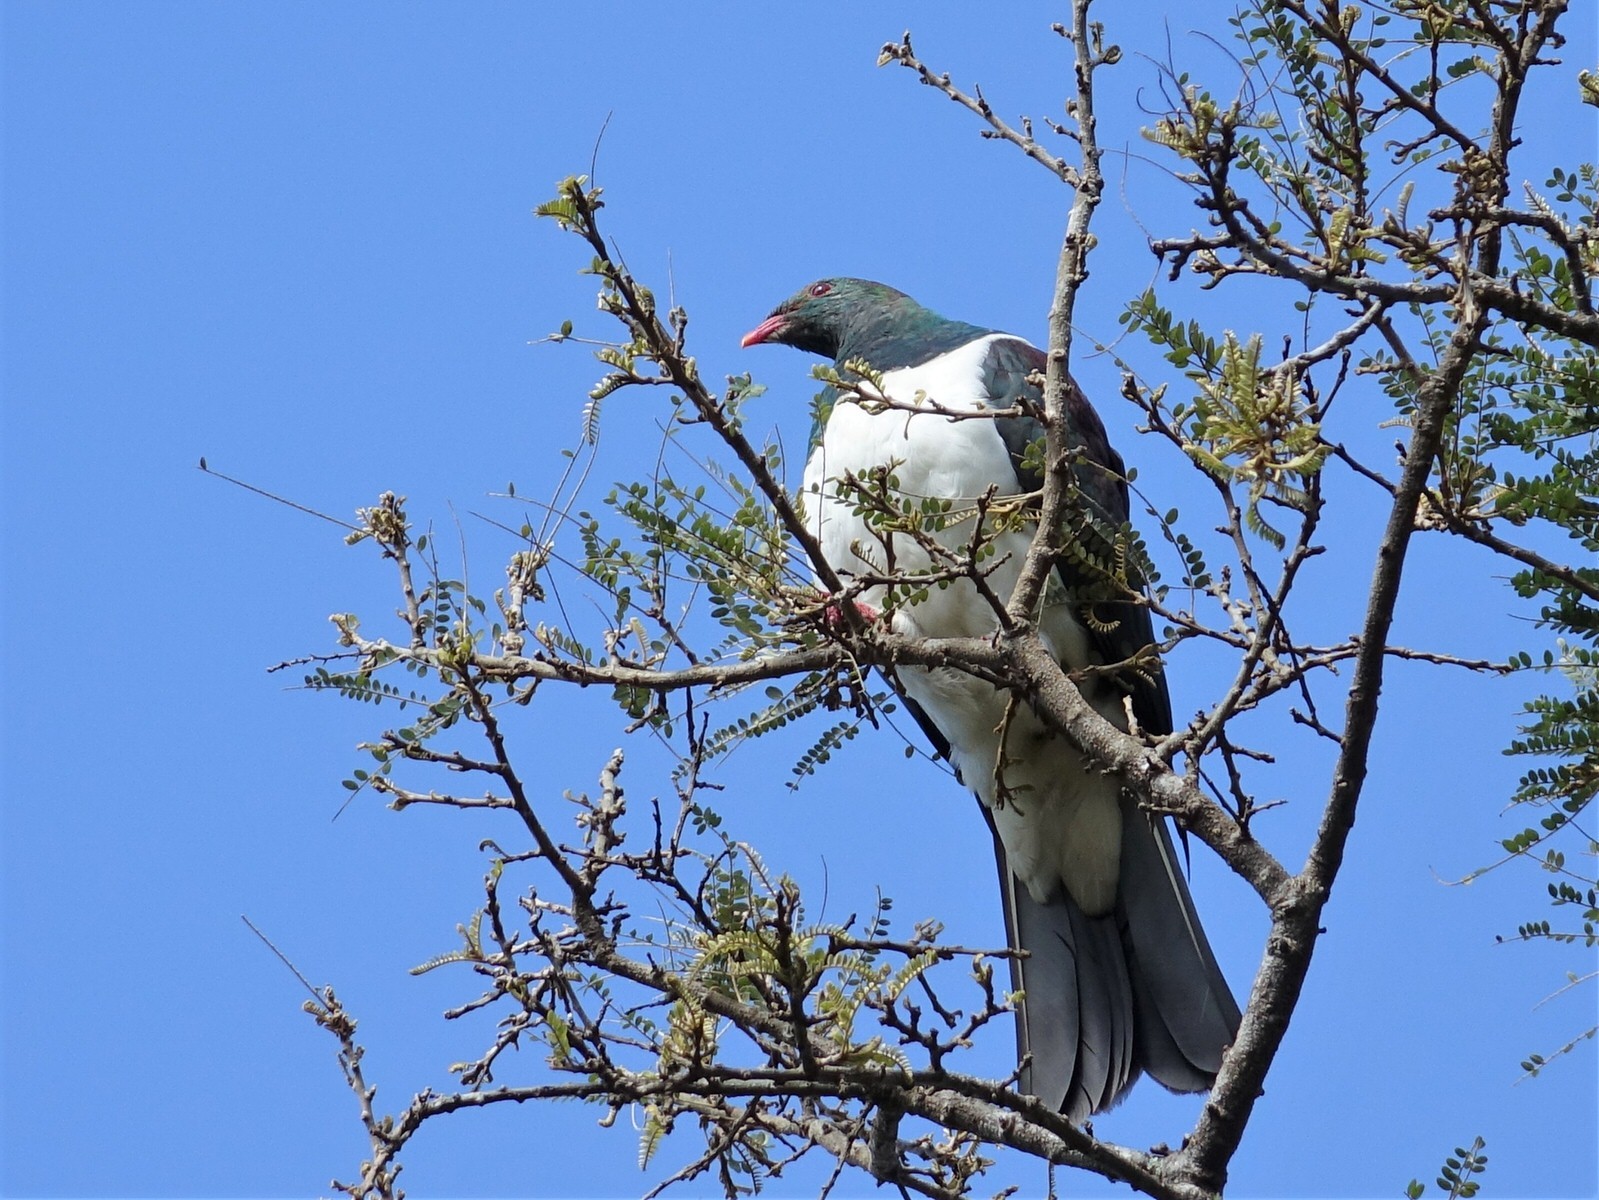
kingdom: Animalia
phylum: Chordata
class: Aves
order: Columbiformes
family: Columbidae
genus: Hemiphaga
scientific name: Hemiphaga novaeseelandiae
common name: New zealand pigeon
